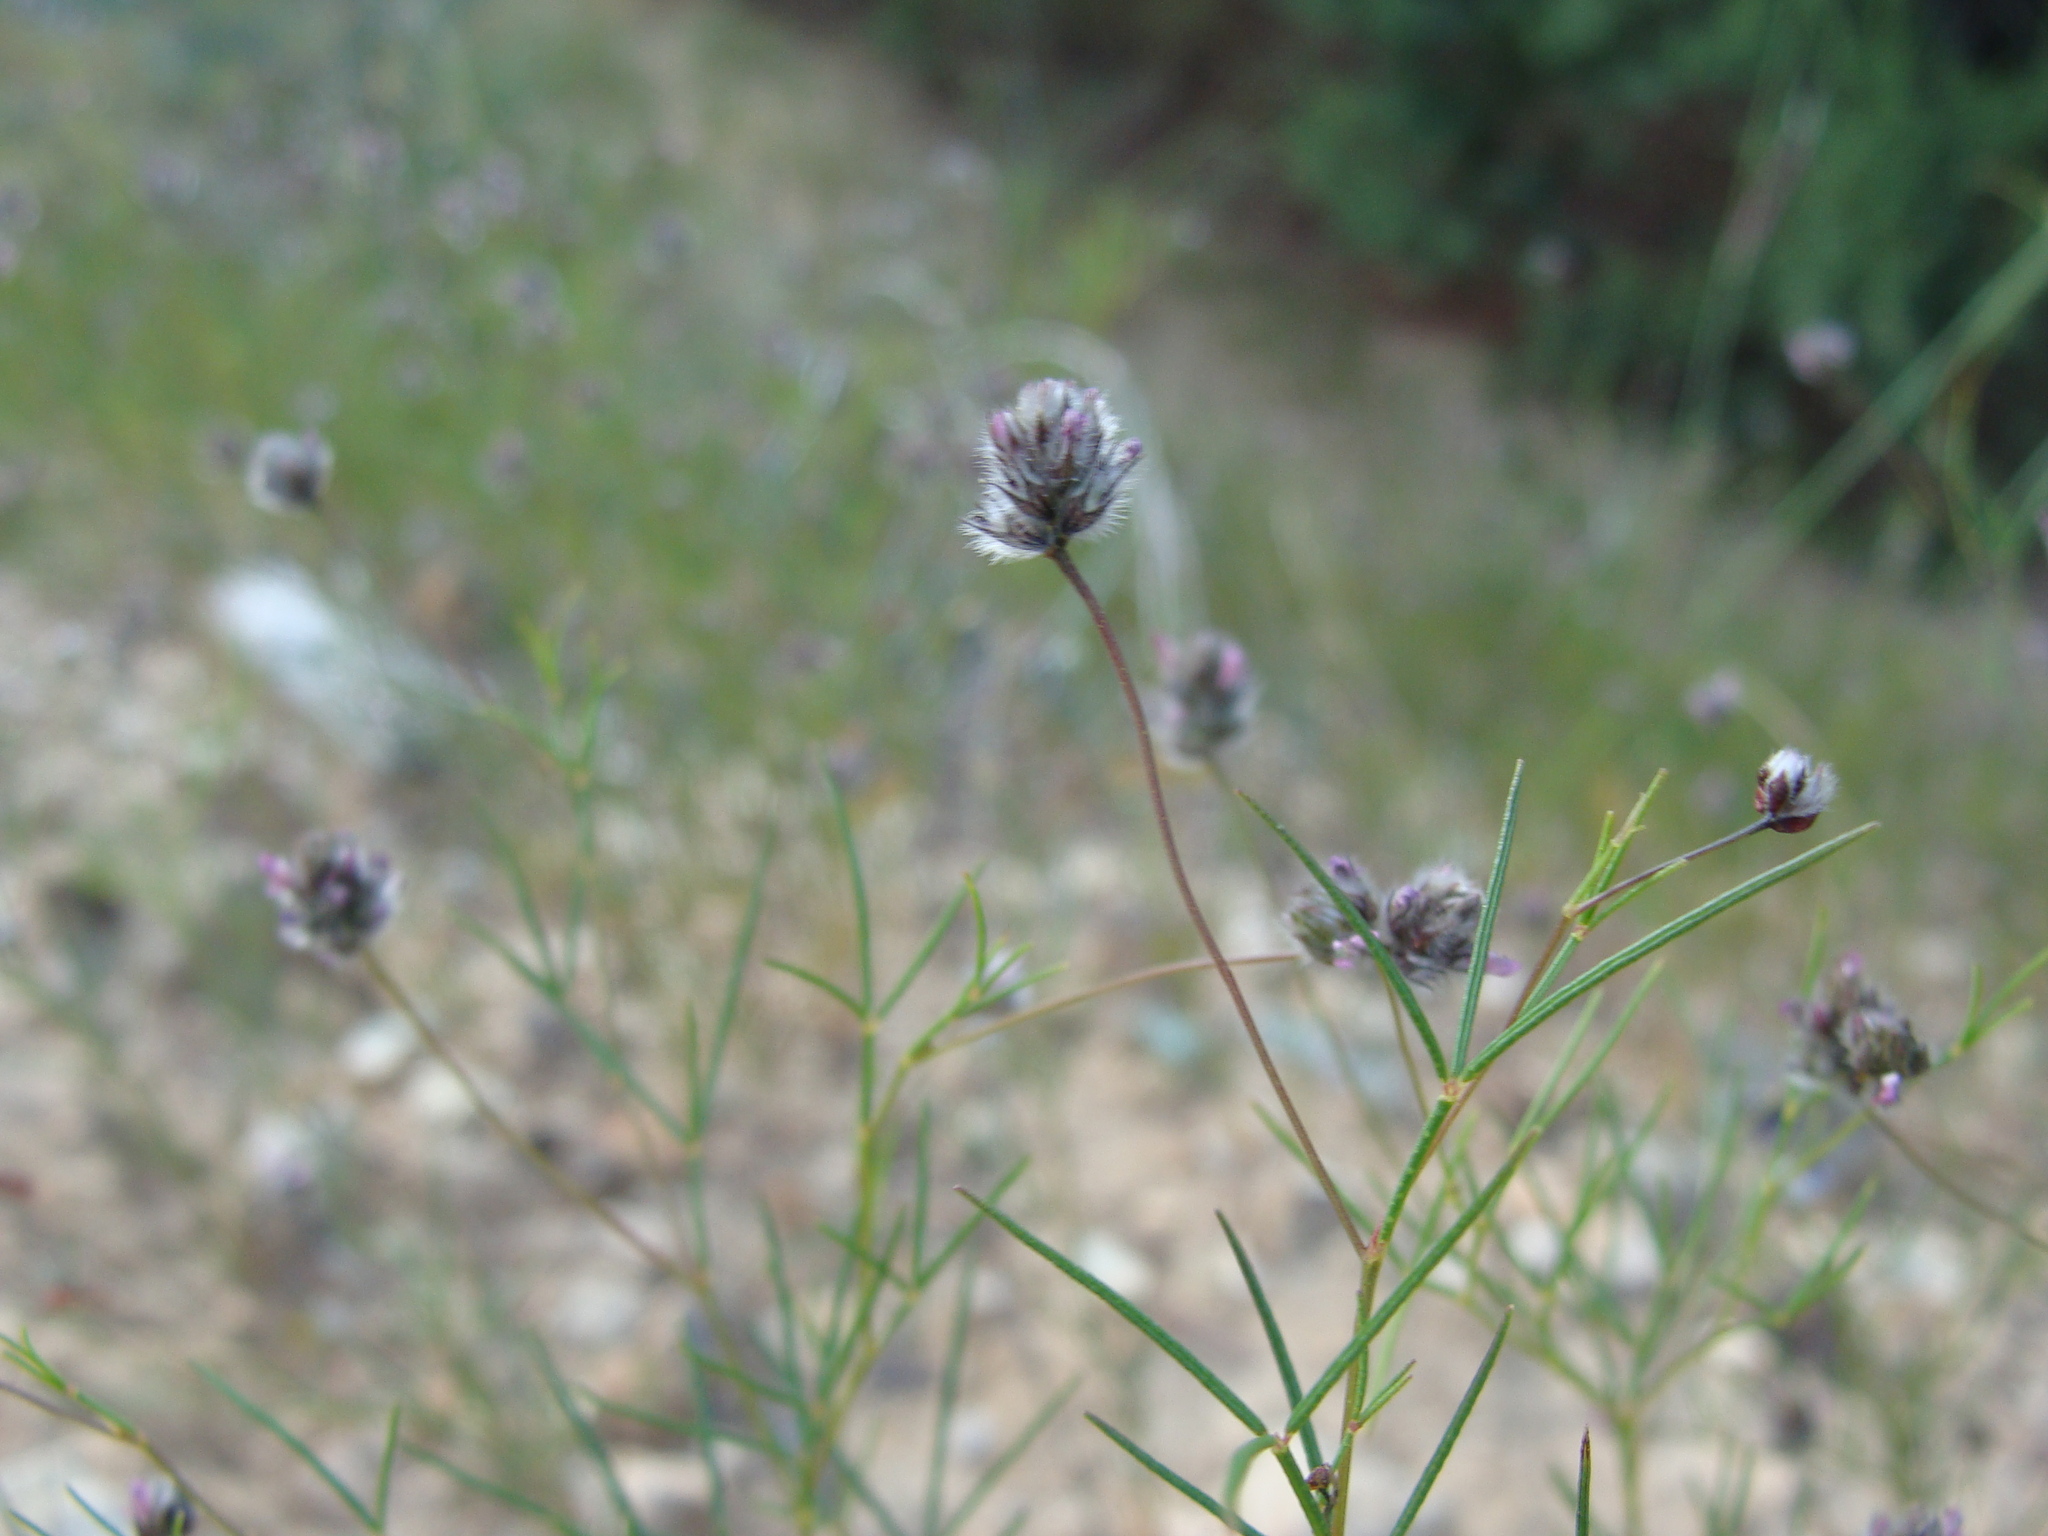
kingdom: Plantae
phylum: Tracheophyta
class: Magnoliopsida
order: Fabales
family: Fabaceae
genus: Dalea
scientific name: Dalea filiformis
